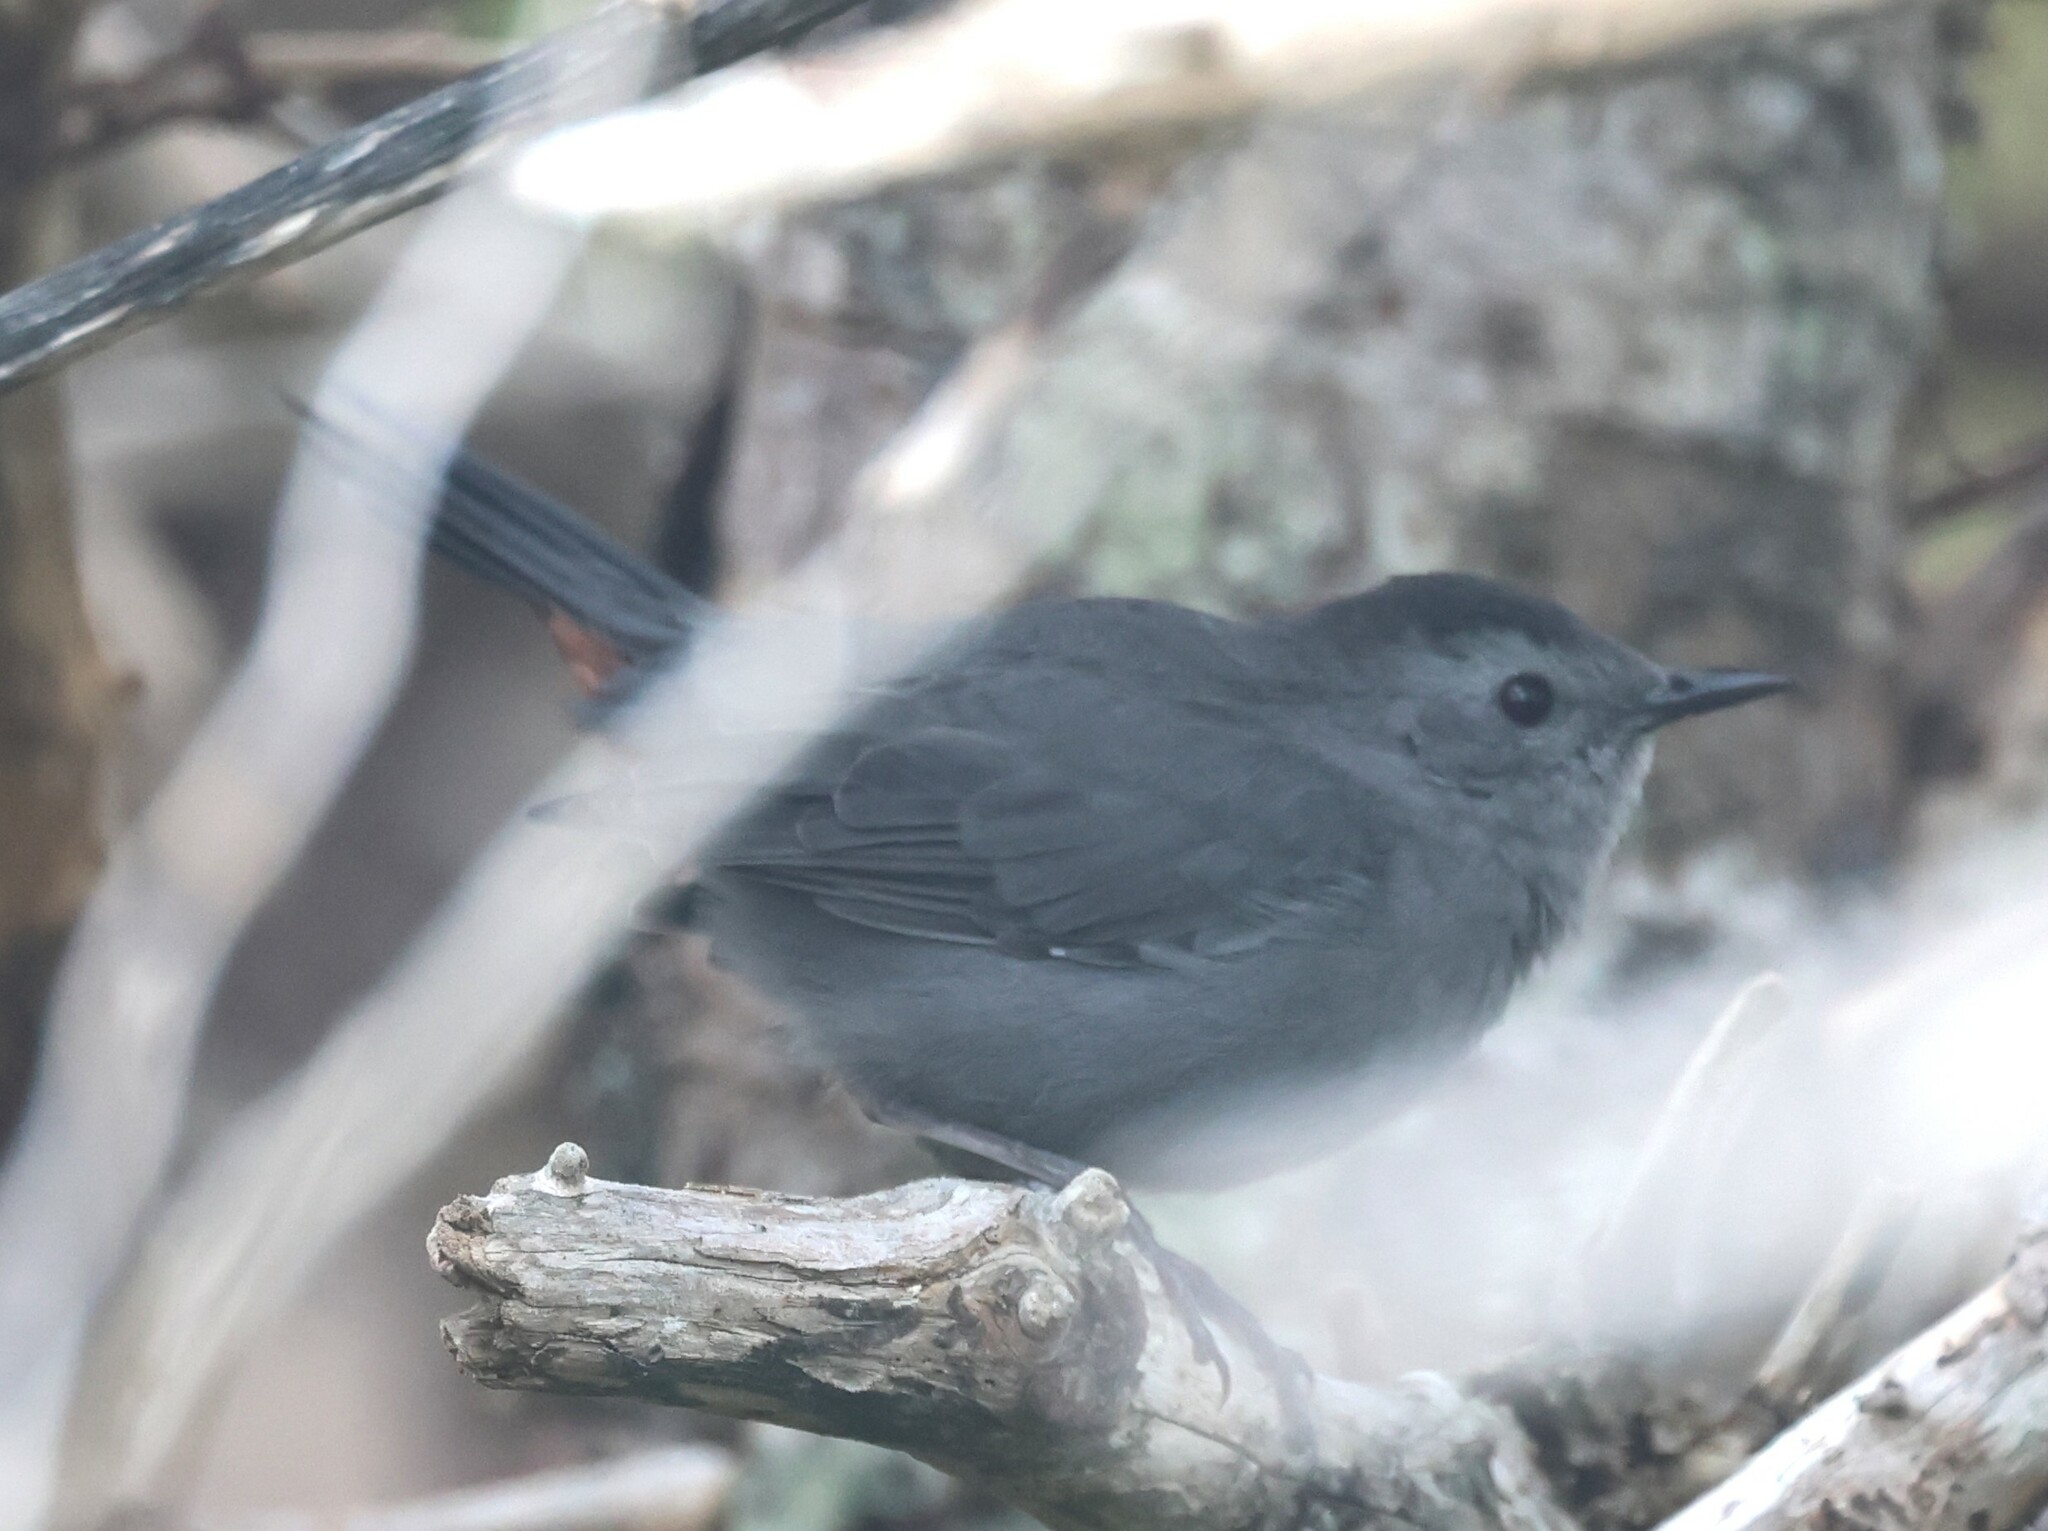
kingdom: Animalia
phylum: Chordata
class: Aves
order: Passeriformes
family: Mimidae
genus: Dumetella
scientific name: Dumetella carolinensis
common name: Gray catbird
